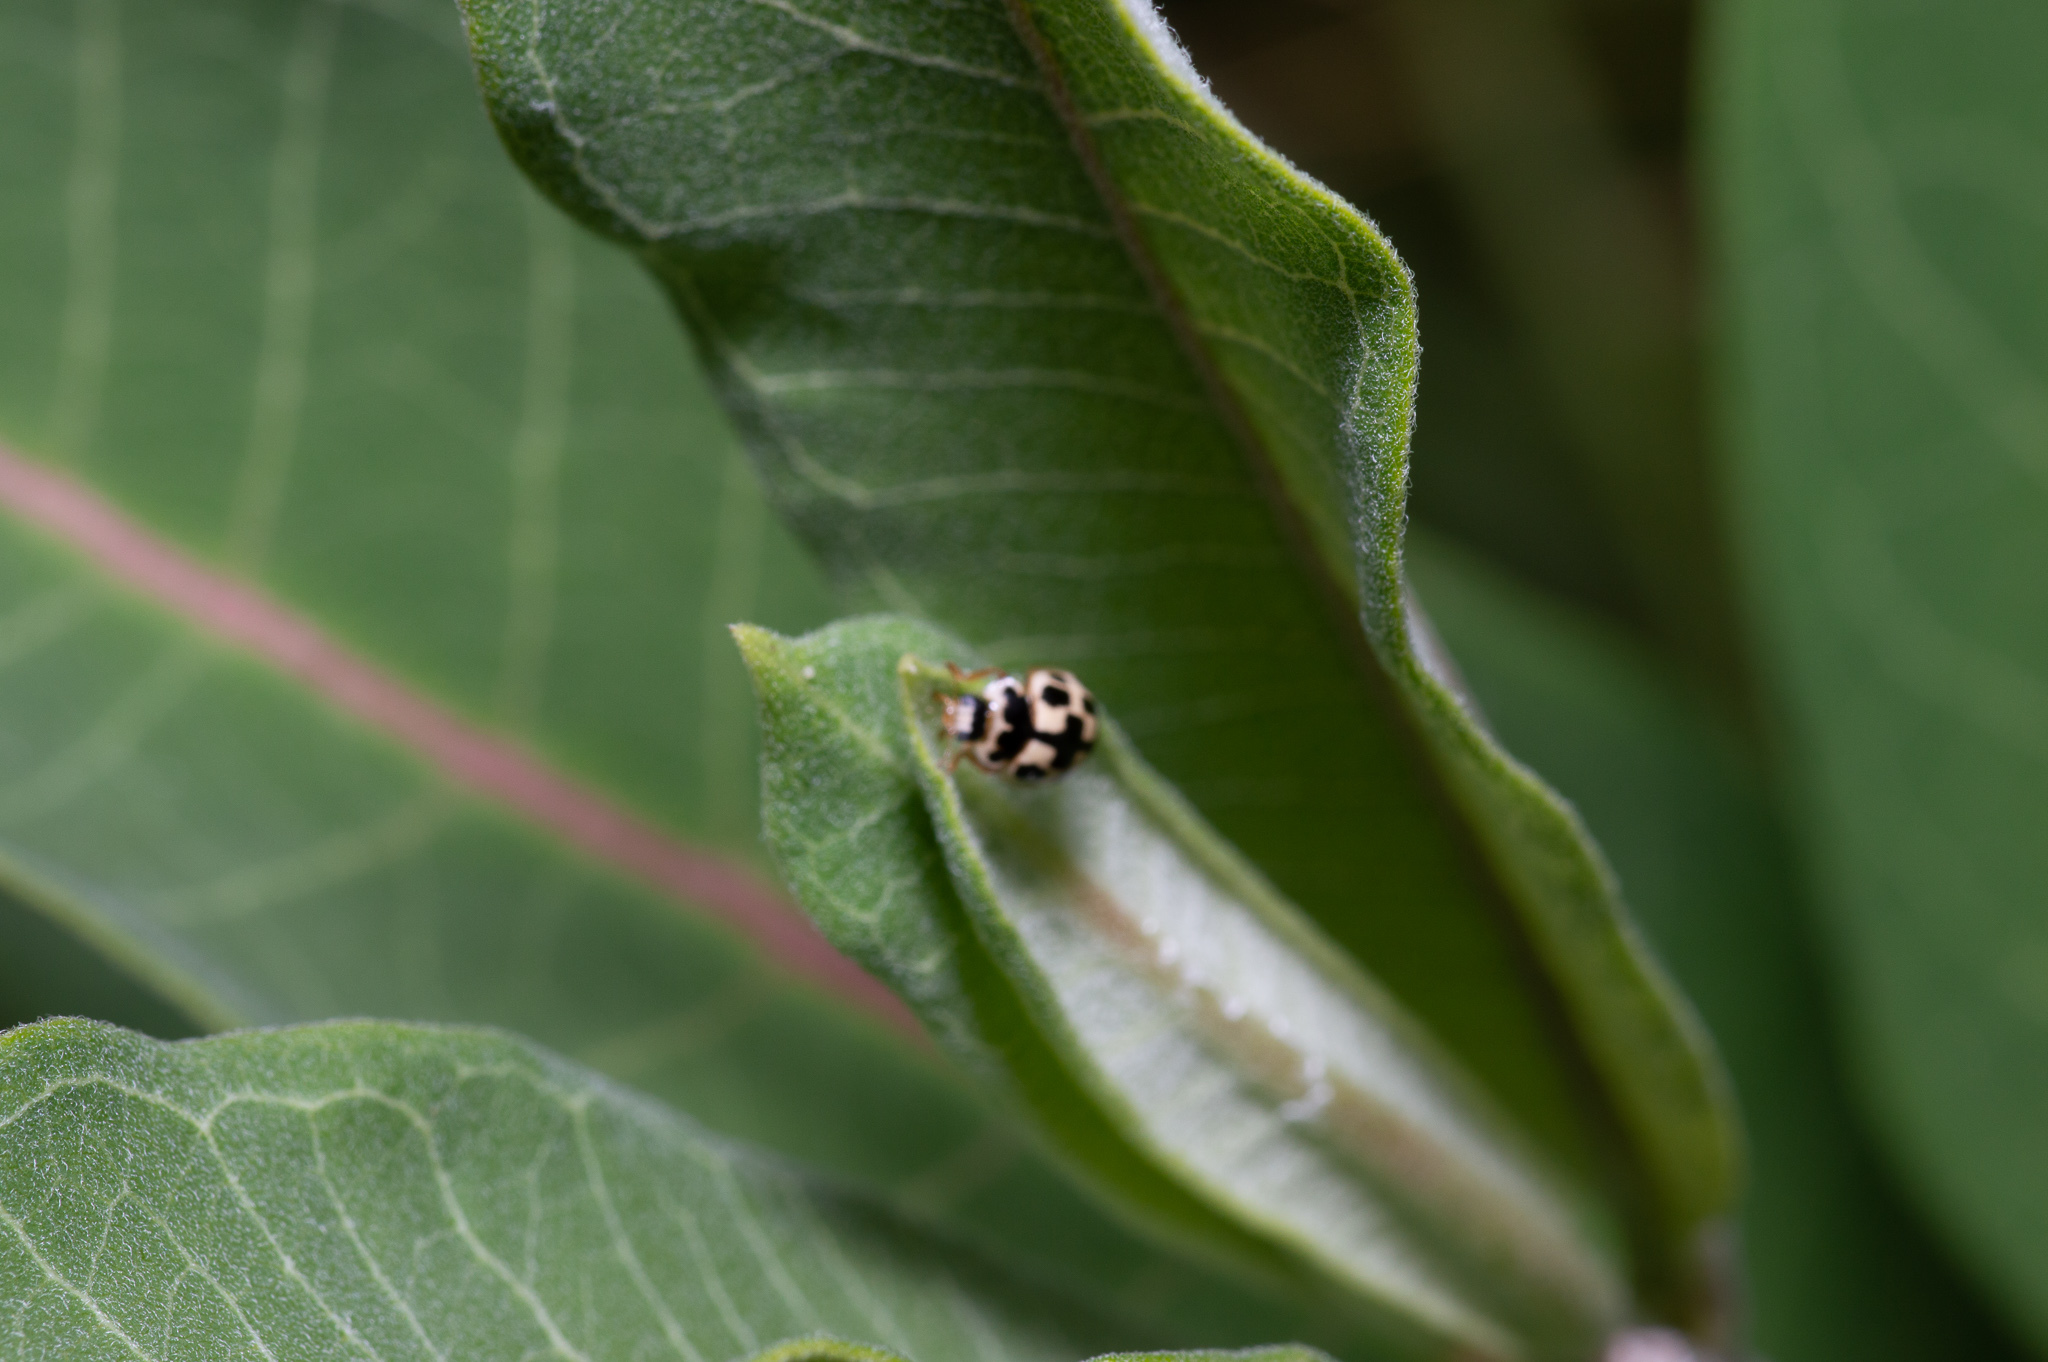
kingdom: Animalia
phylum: Arthropoda
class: Insecta
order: Coleoptera
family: Coccinellidae
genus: Propylaea
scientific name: Propylaea quatuordecimpunctata
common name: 14-spotted ladybird beetle
